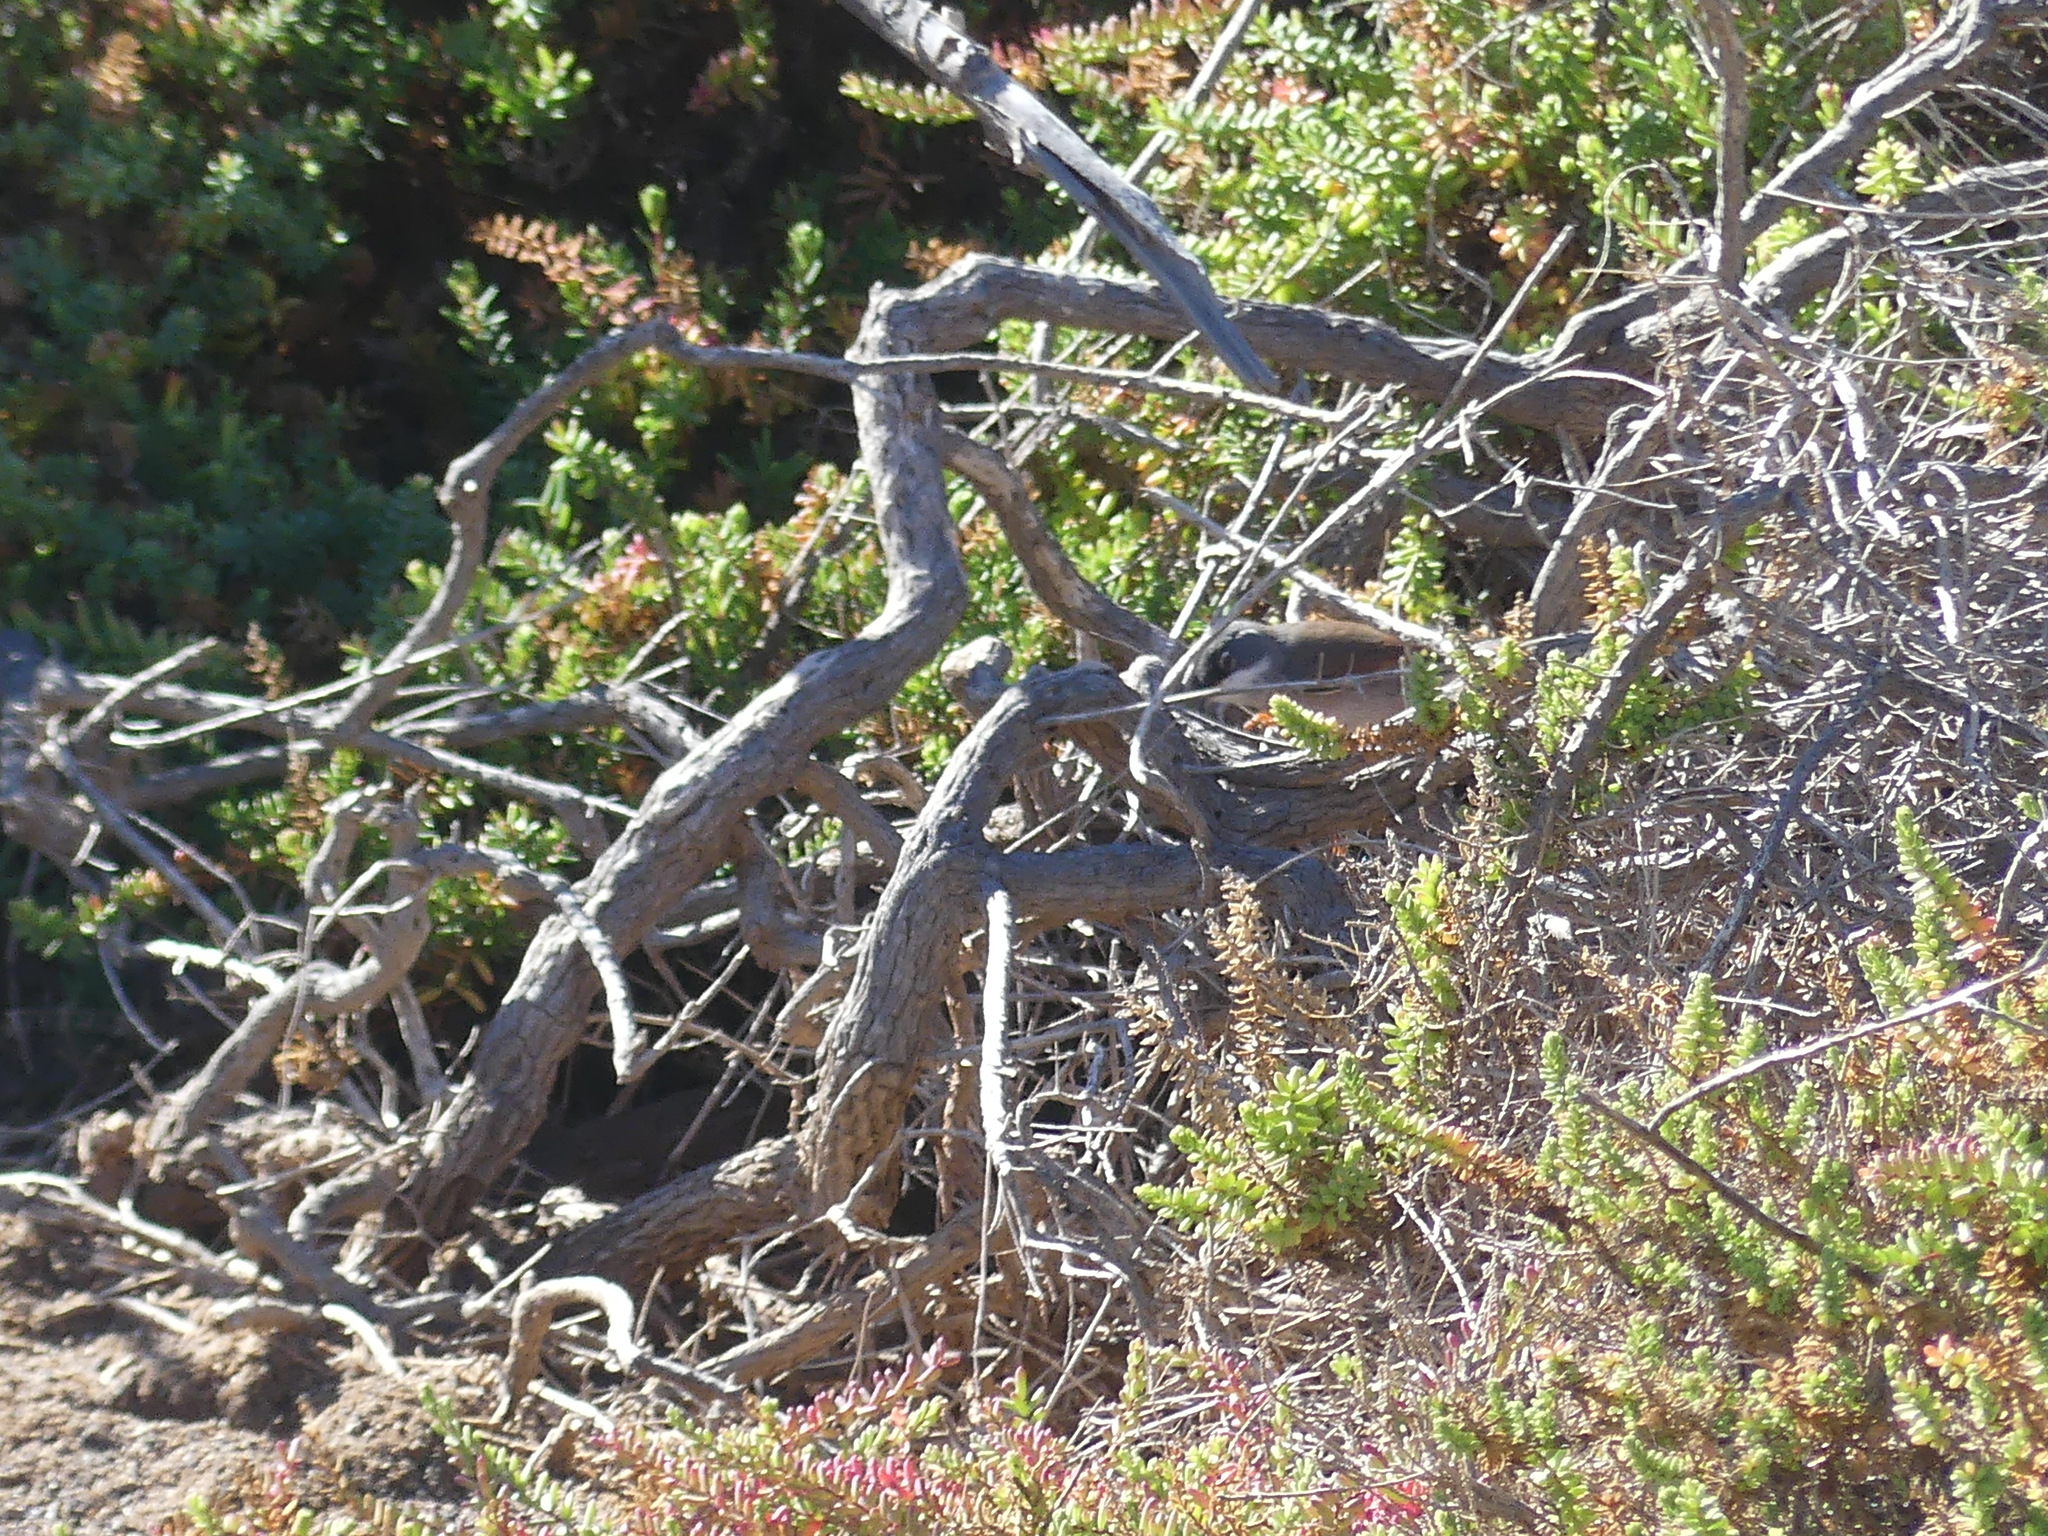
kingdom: Animalia
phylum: Chordata
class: Aves
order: Passeriformes
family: Sylviidae
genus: Sylvia
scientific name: Sylvia conspicillata
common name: Spectacled warbler
